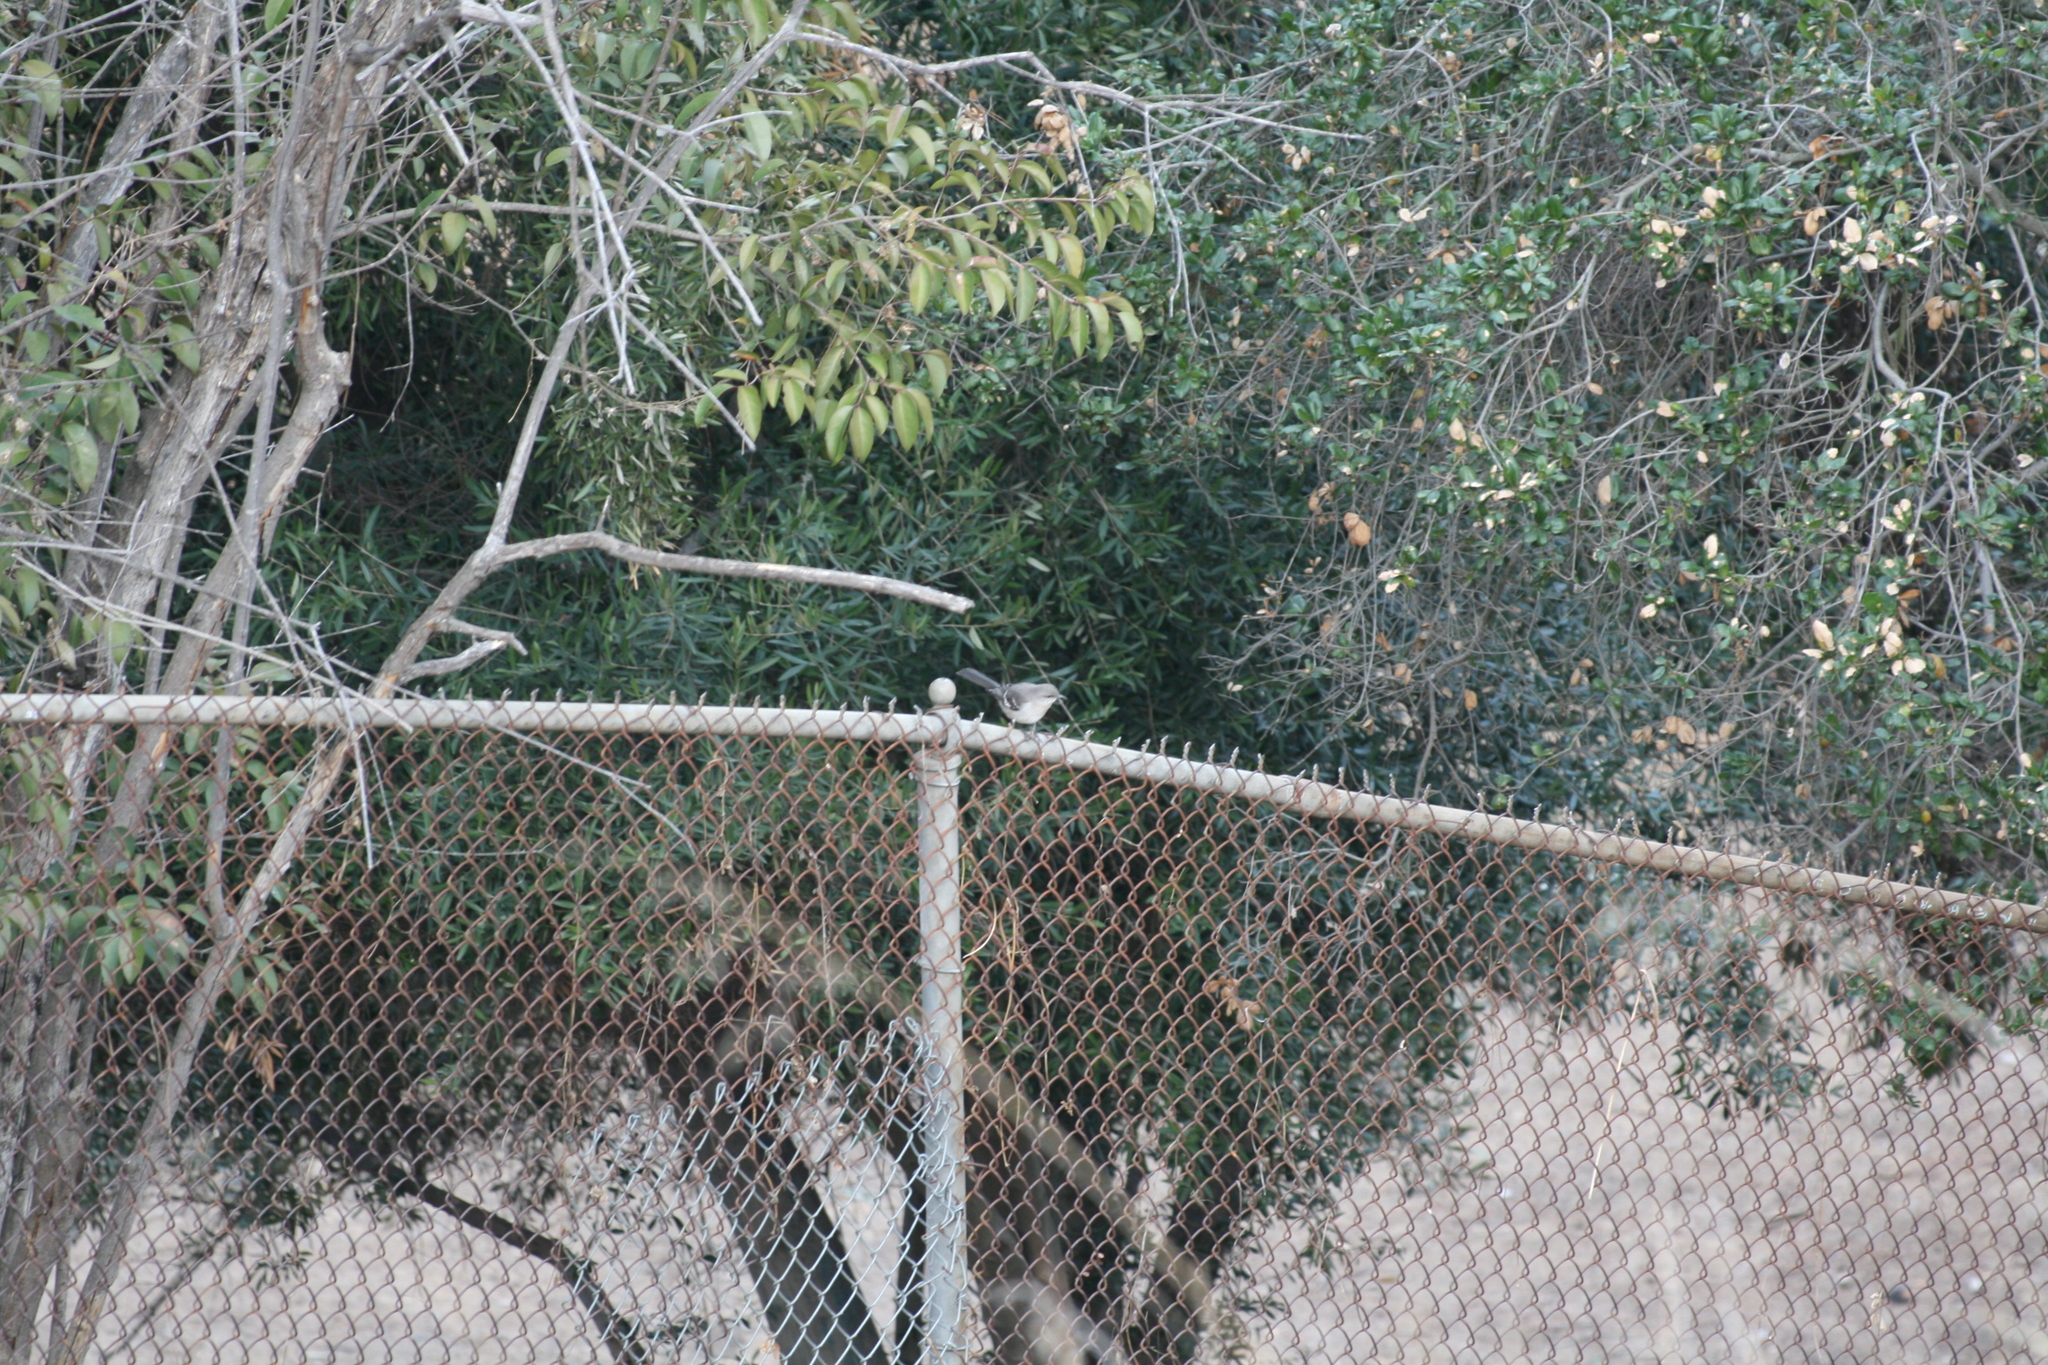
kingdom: Animalia
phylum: Chordata
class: Aves
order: Passeriformes
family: Mimidae
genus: Mimus
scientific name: Mimus polyglottos
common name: Northern mockingbird
